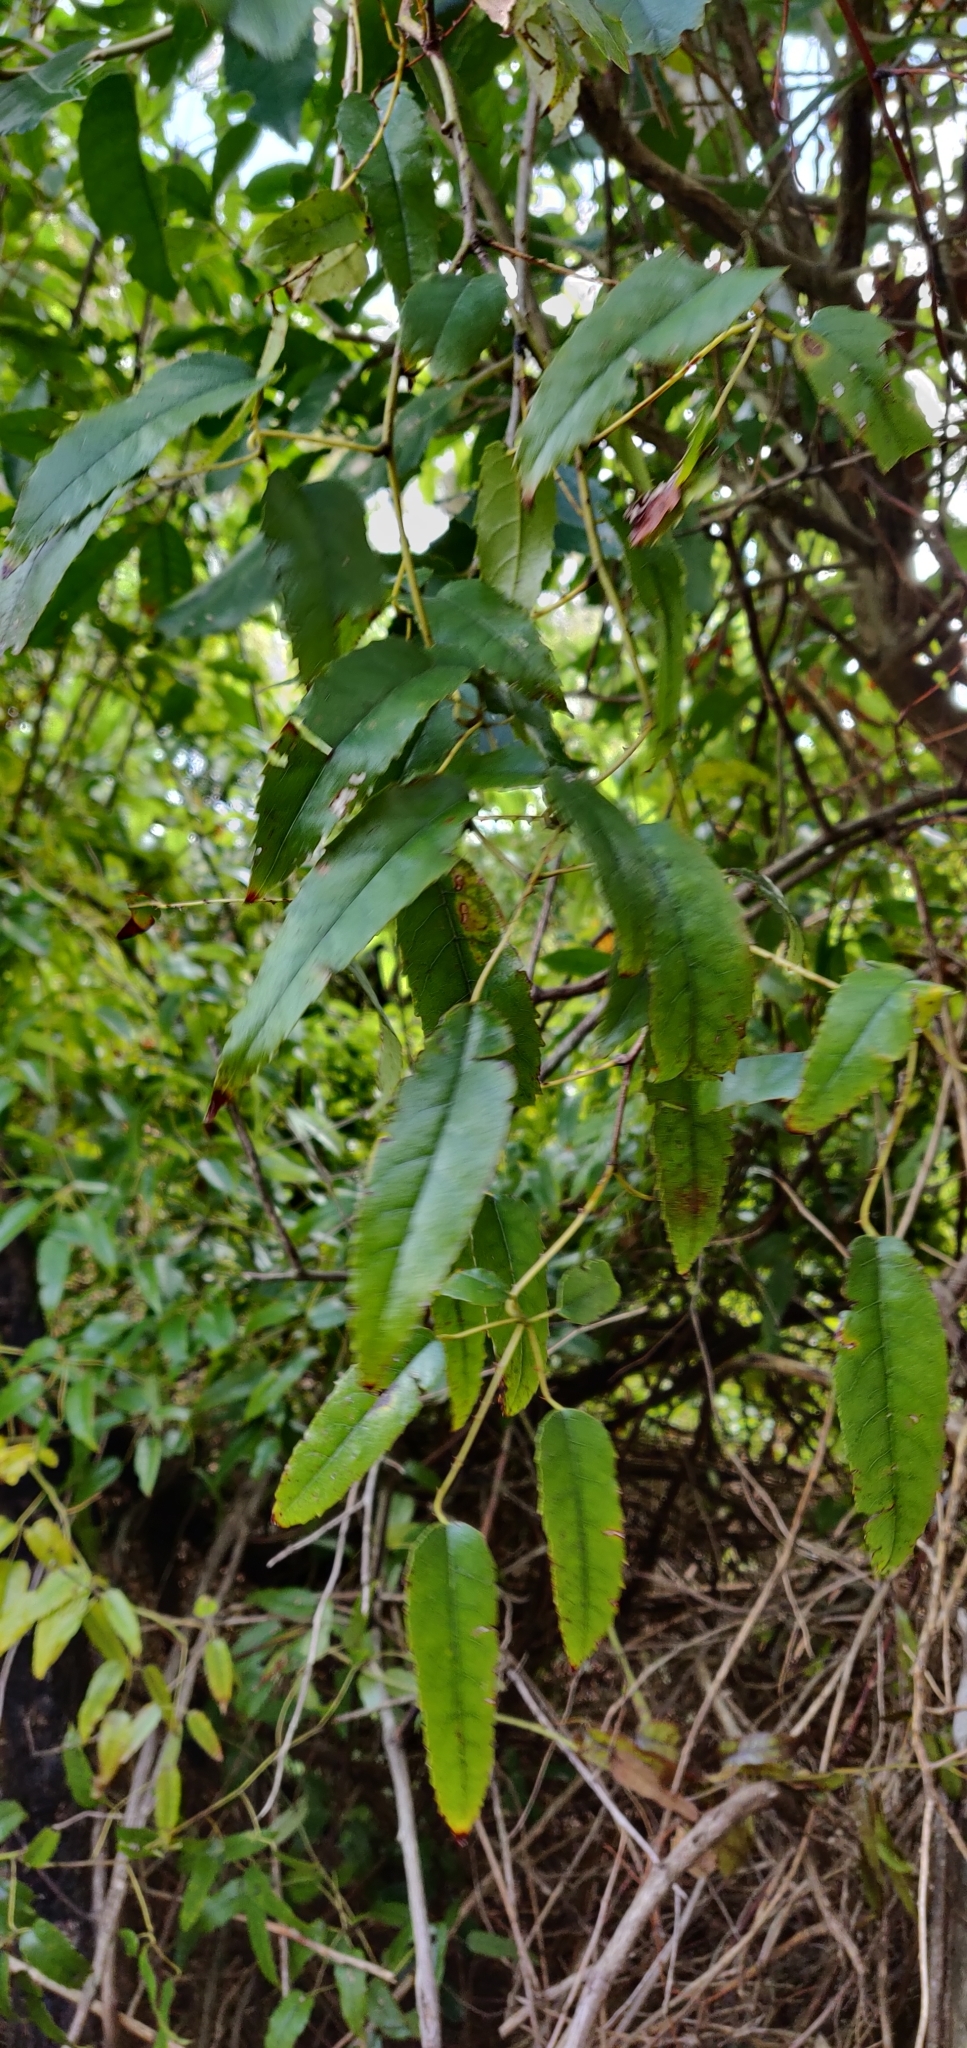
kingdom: Plantae
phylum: Tracheophyta
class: Magnoliopsida
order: Rosales
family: Rosaceae
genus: Rubus
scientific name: Rubus cissoides
